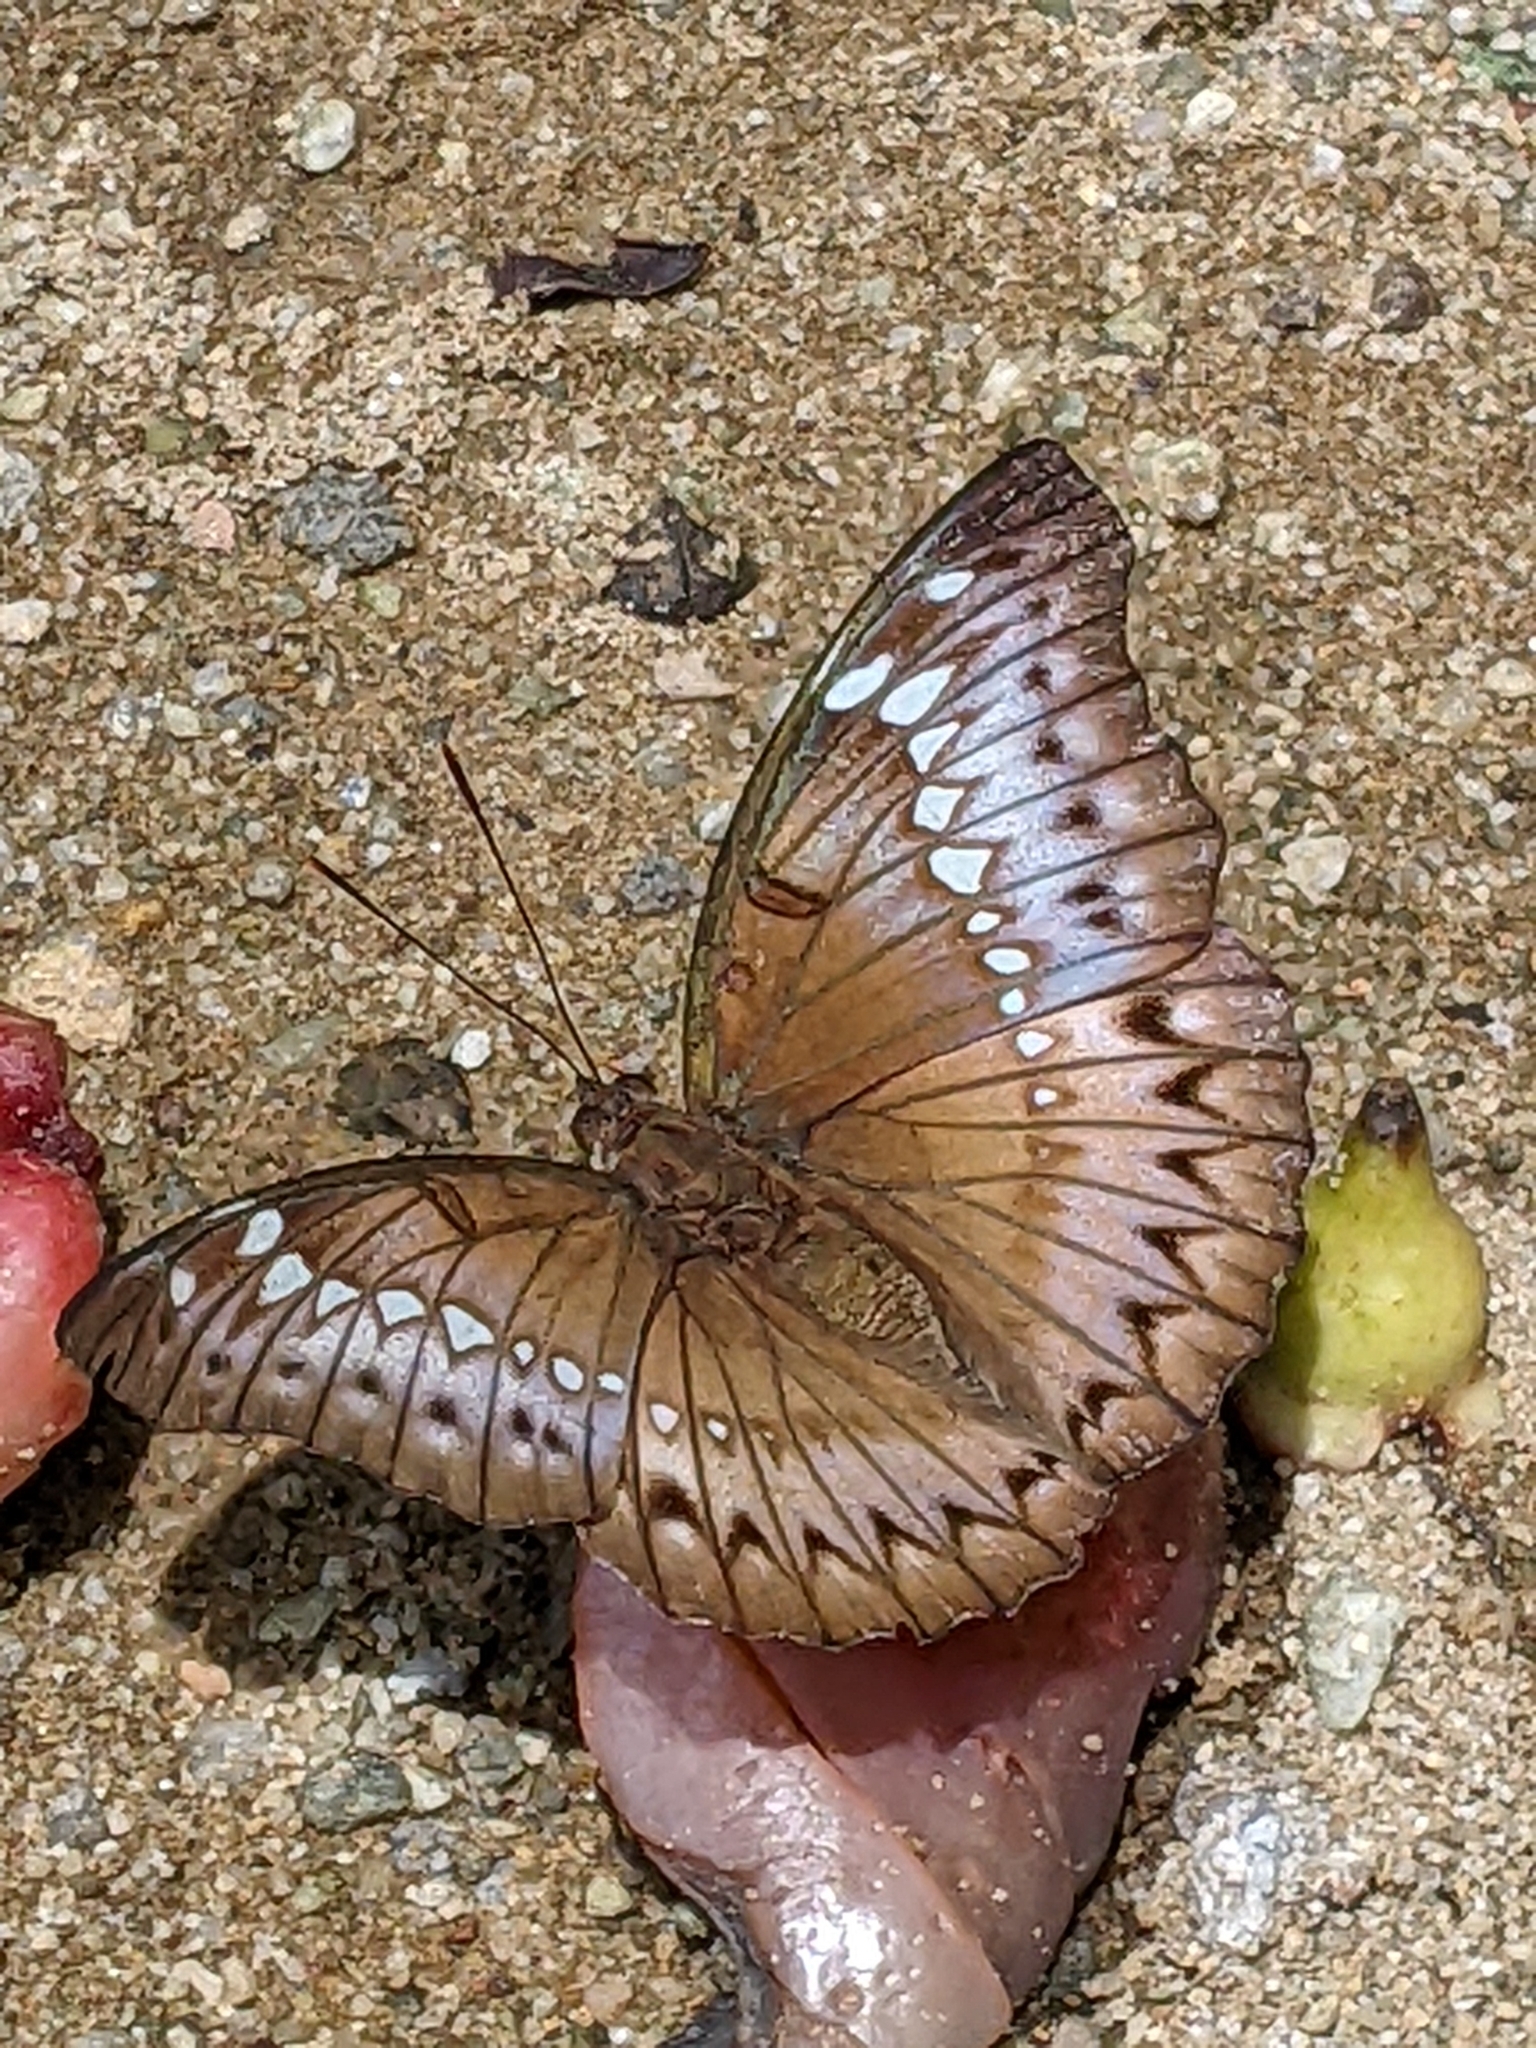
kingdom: Animalia
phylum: Arthropoda
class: Insecta
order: Lepidoptera
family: Nymphalidae
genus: Euthalia
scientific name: Euthalia Bassarona teuta
